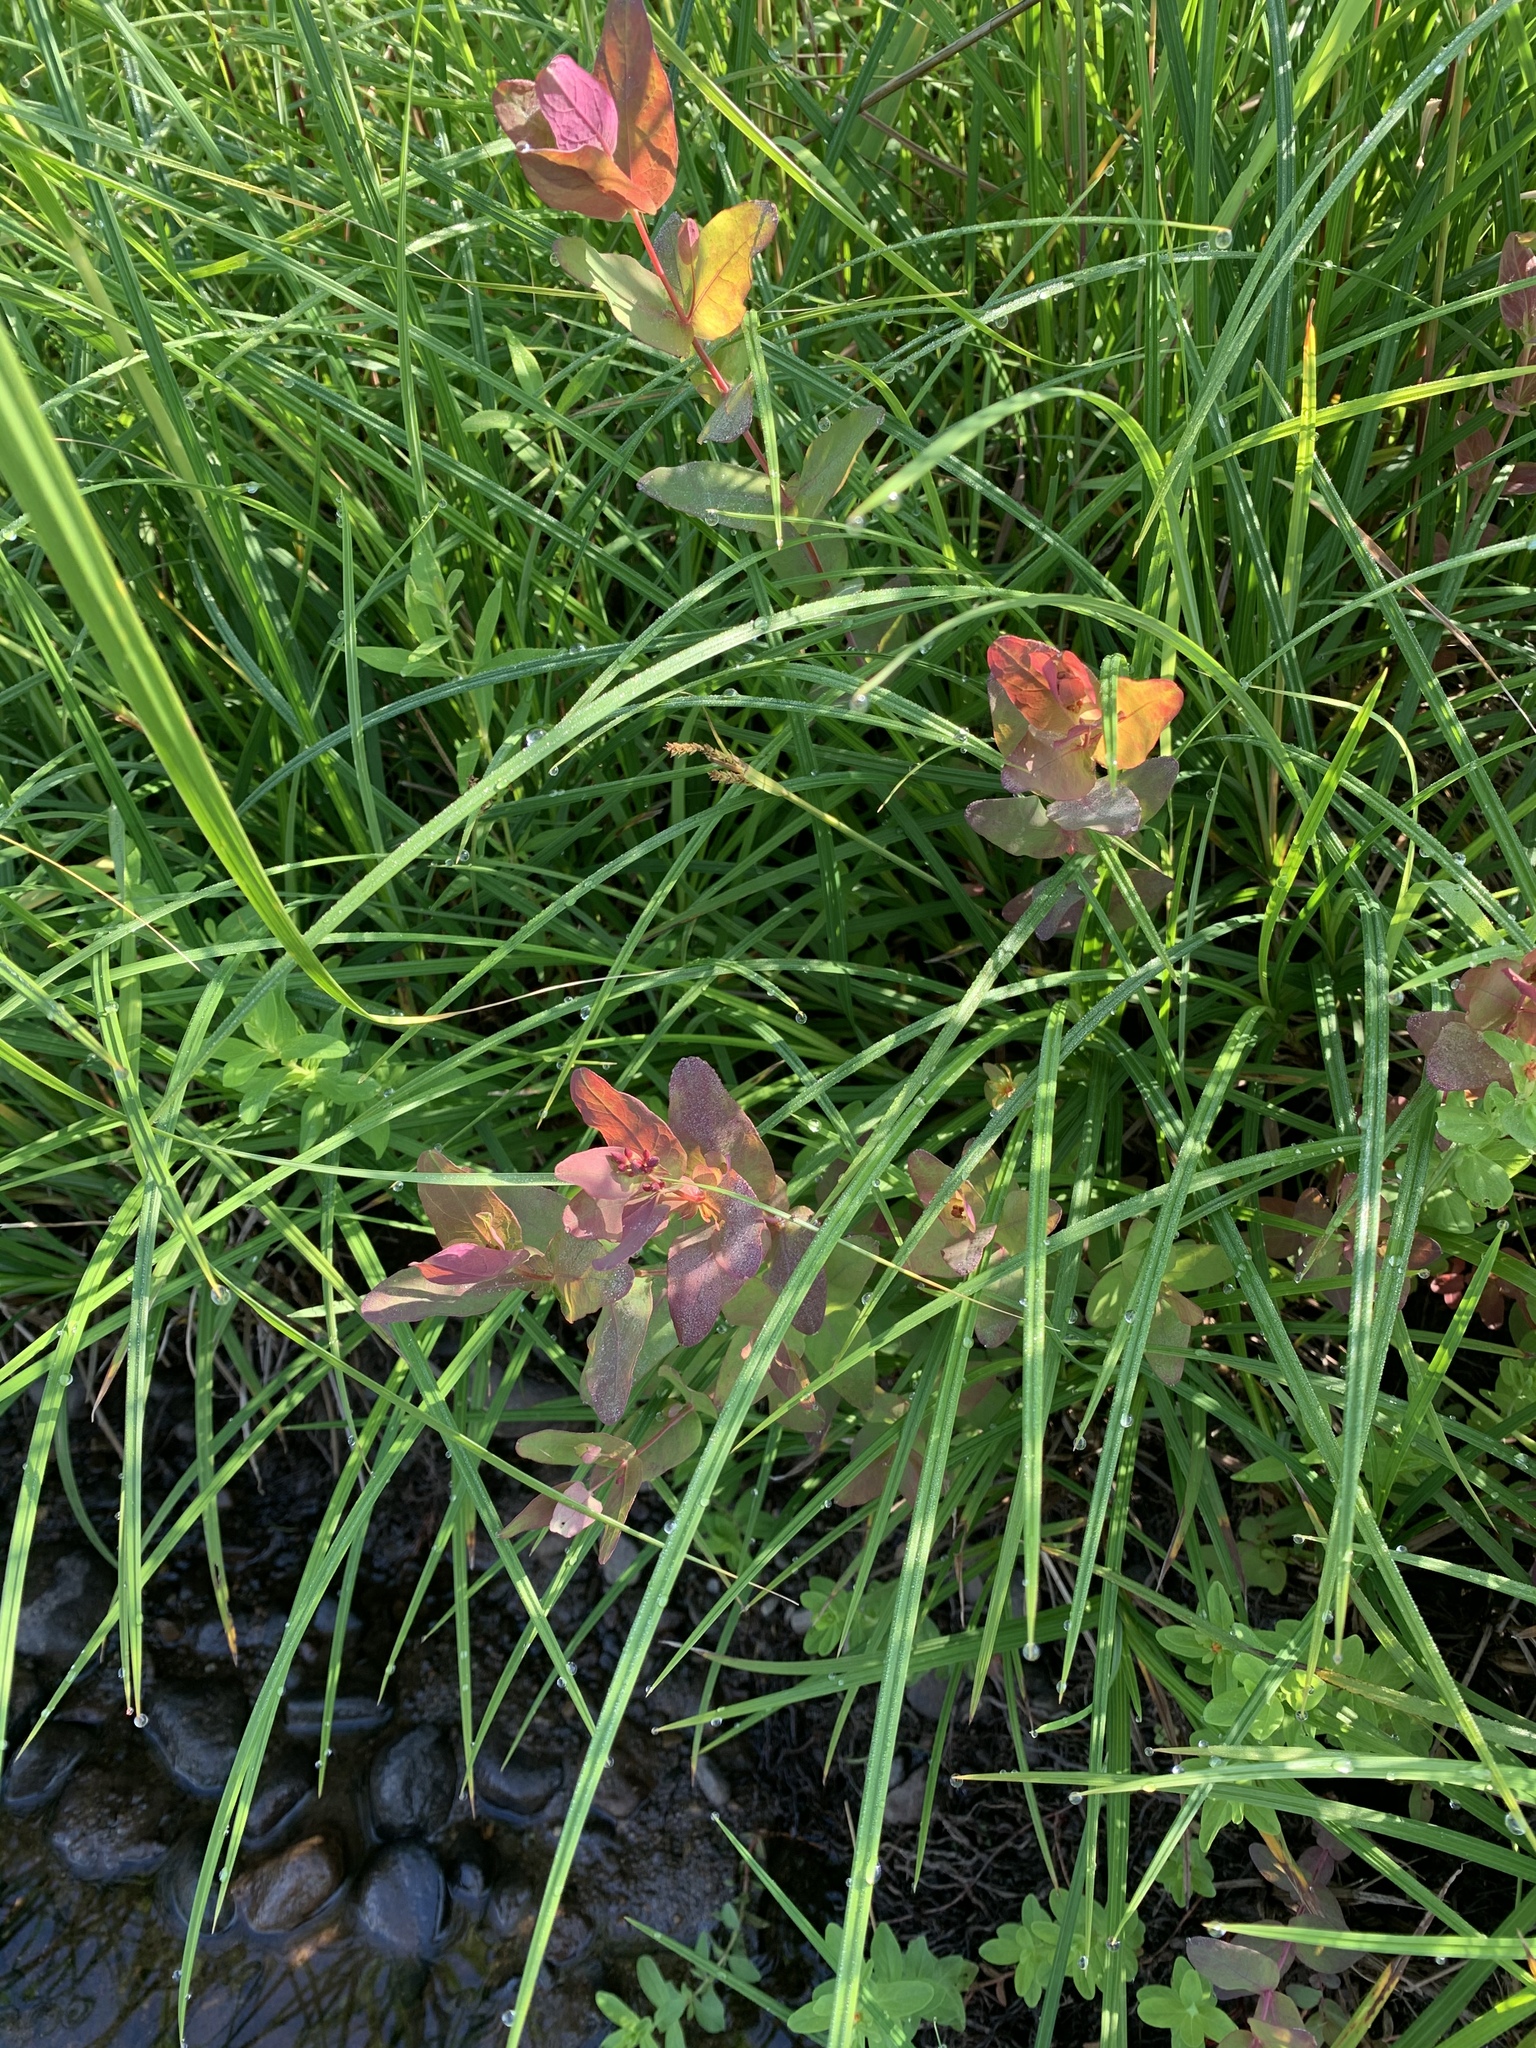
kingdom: Plantae
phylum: Tracheophyta
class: Magnoliopsida
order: Malpighiales
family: Hypericaceae
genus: Triadenum
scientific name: Triadenum fraseri
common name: Fraser's marsh st. johnswort
